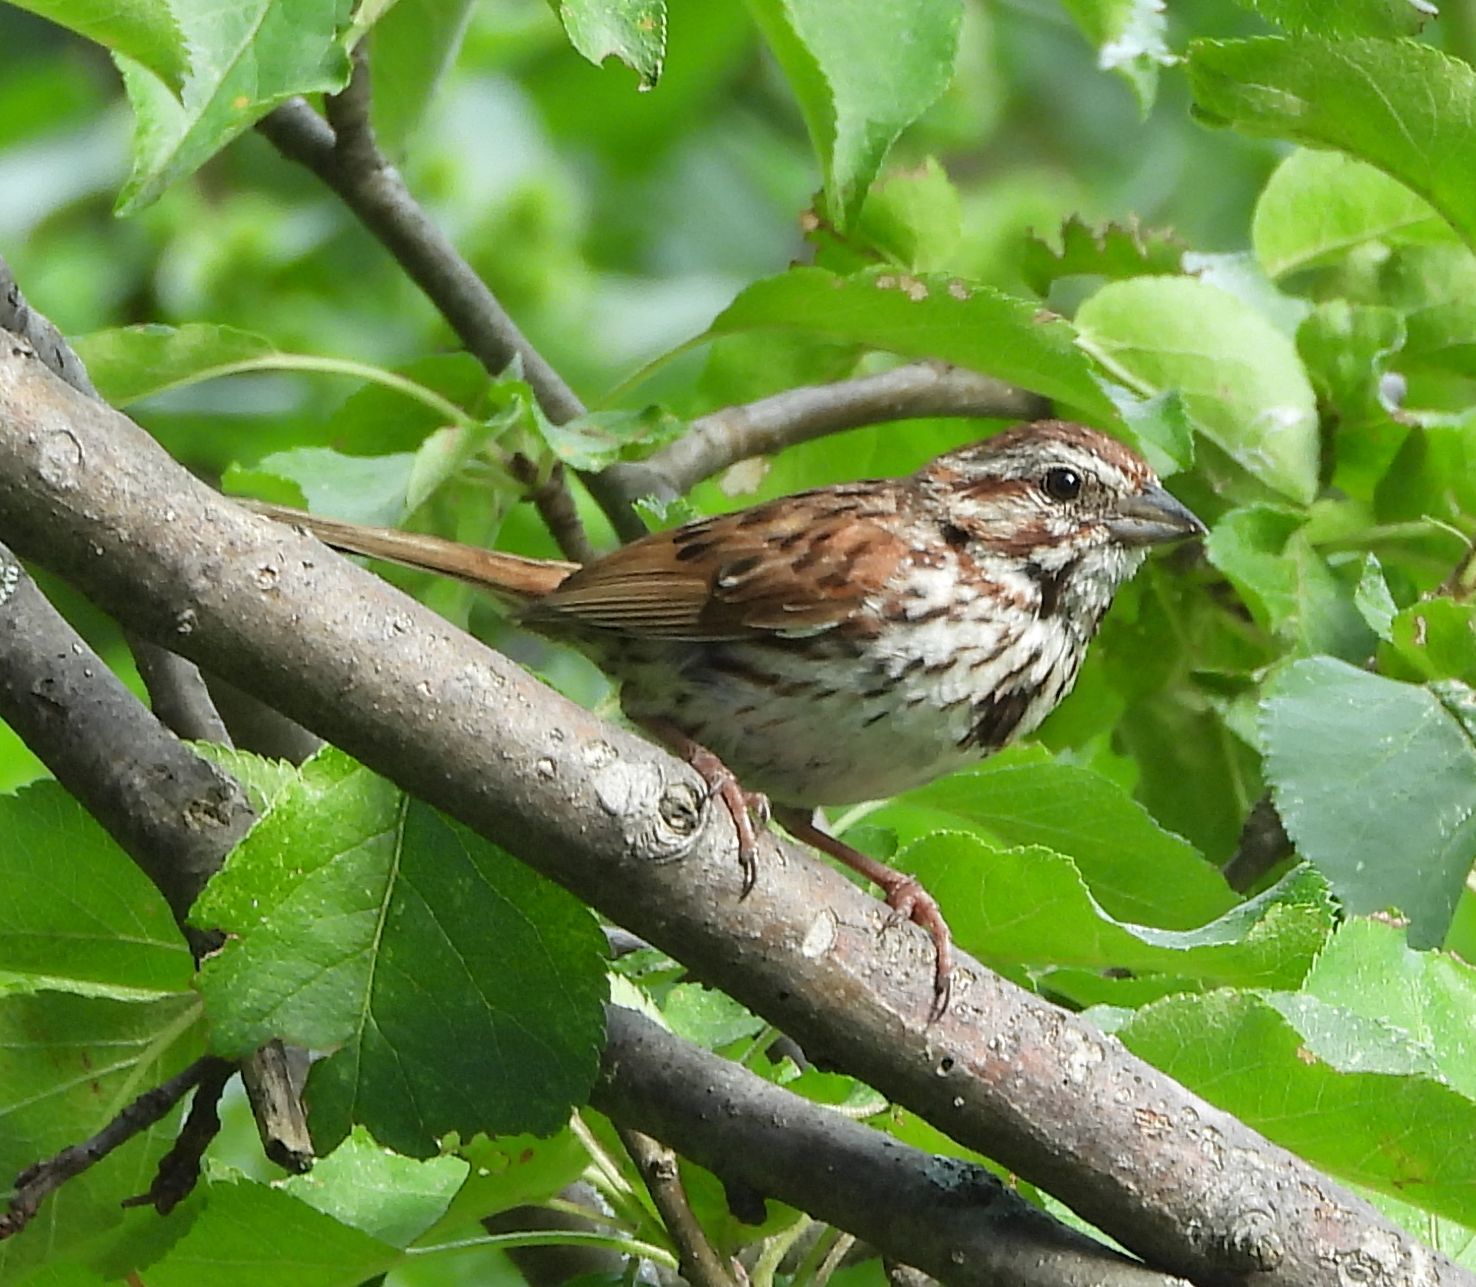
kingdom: Animalia
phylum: Chordata
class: Aves
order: Passeriformes
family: Passerellidae
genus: Melospiza
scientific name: Melospiza melodia
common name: Song sparrow
